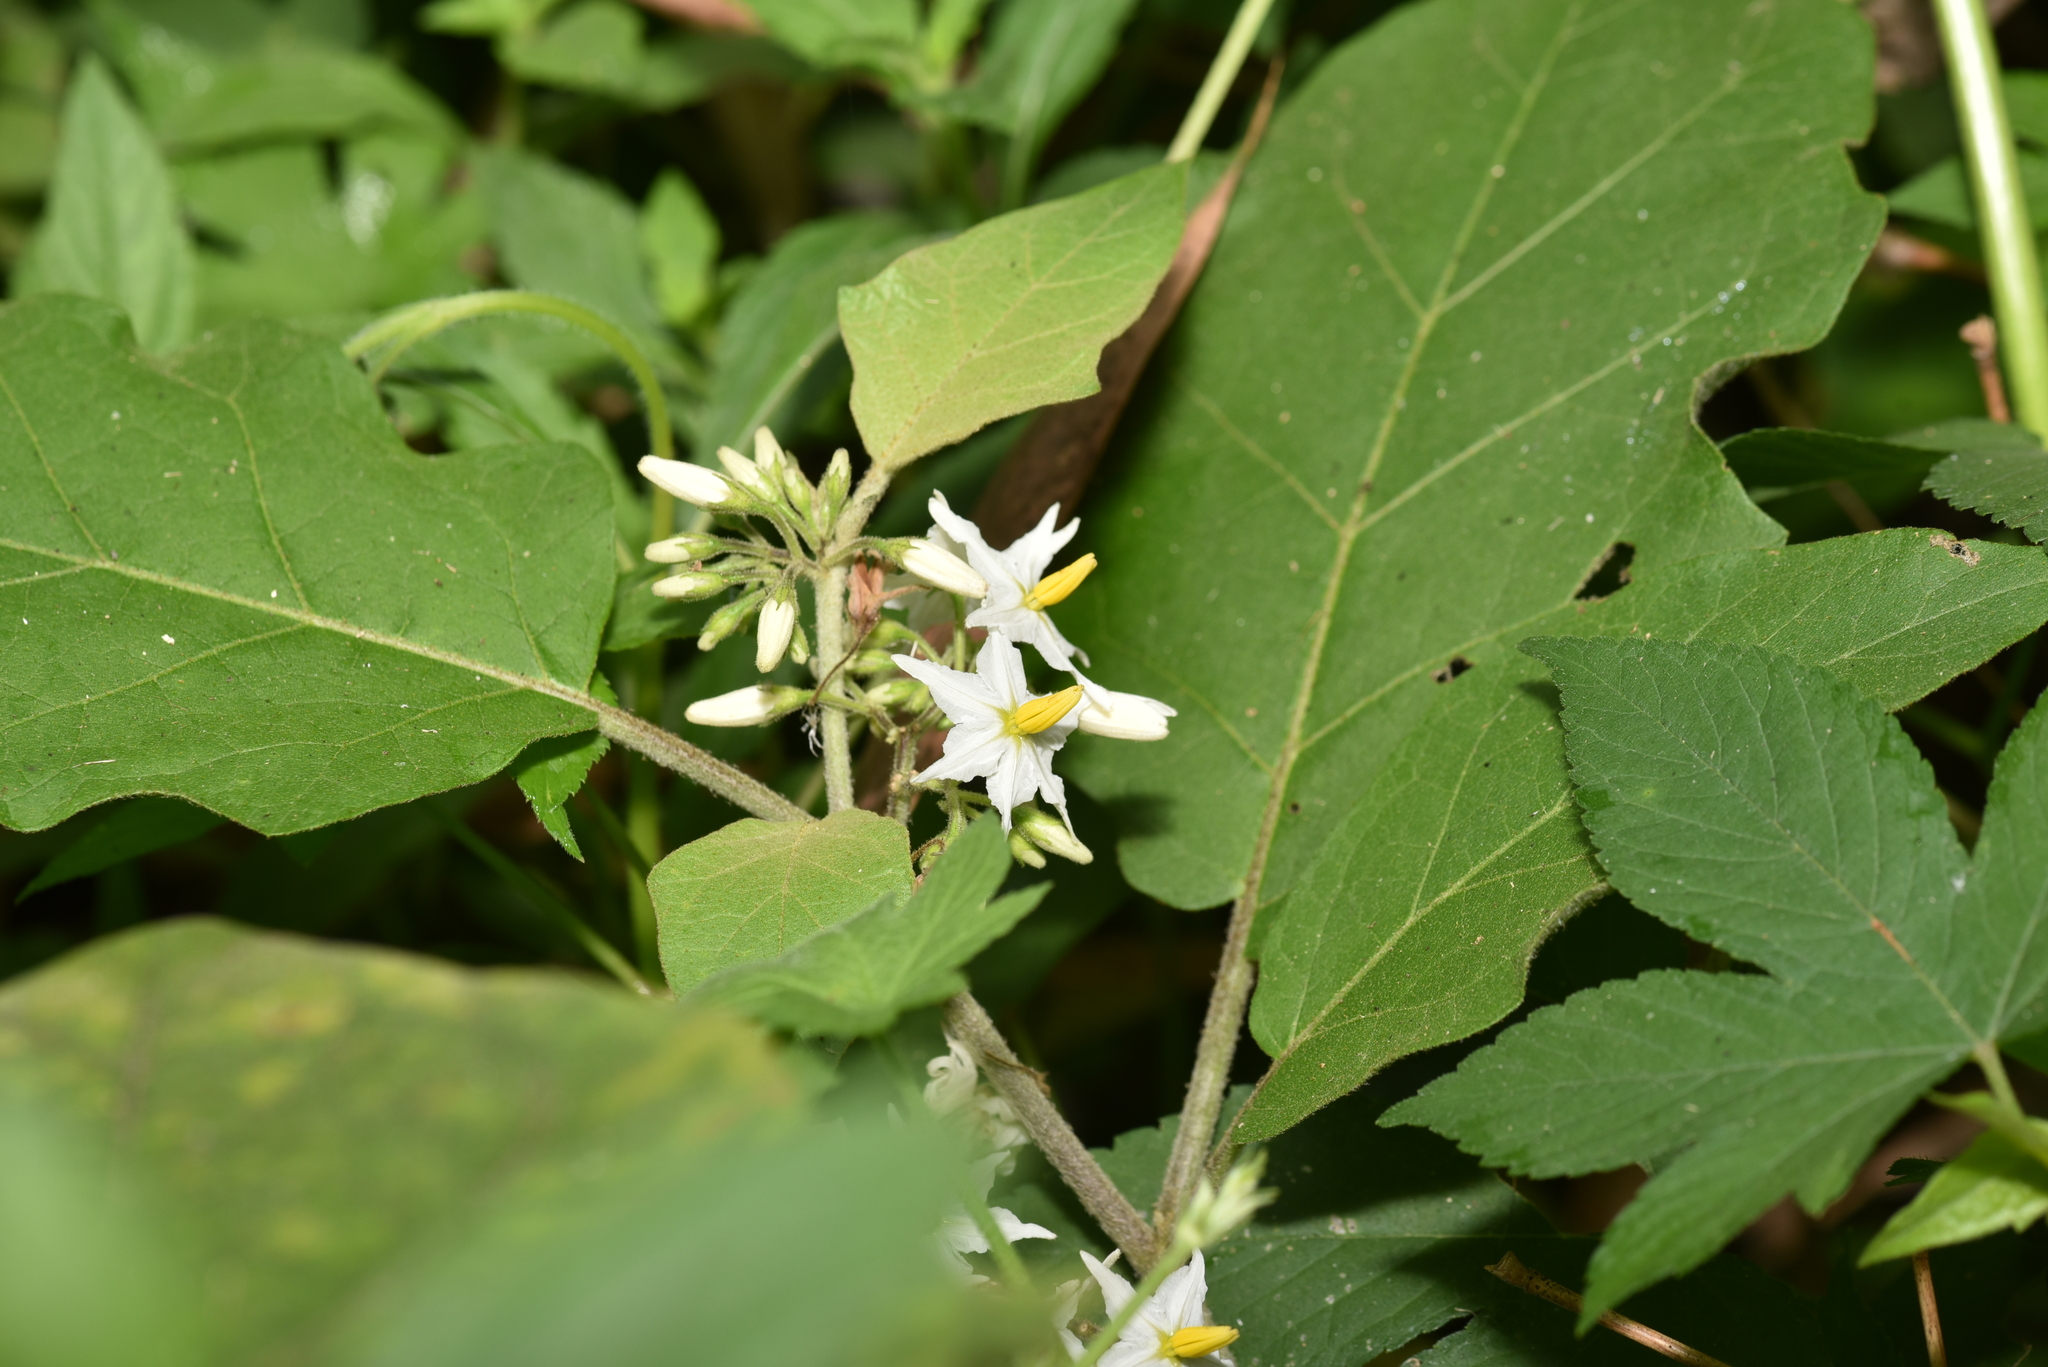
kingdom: Plantae
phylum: Tracheophyta
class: Magnoliopsida
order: Solanales
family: Solanaceae
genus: Solanum
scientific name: Solanum torvum
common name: Turkey berry
